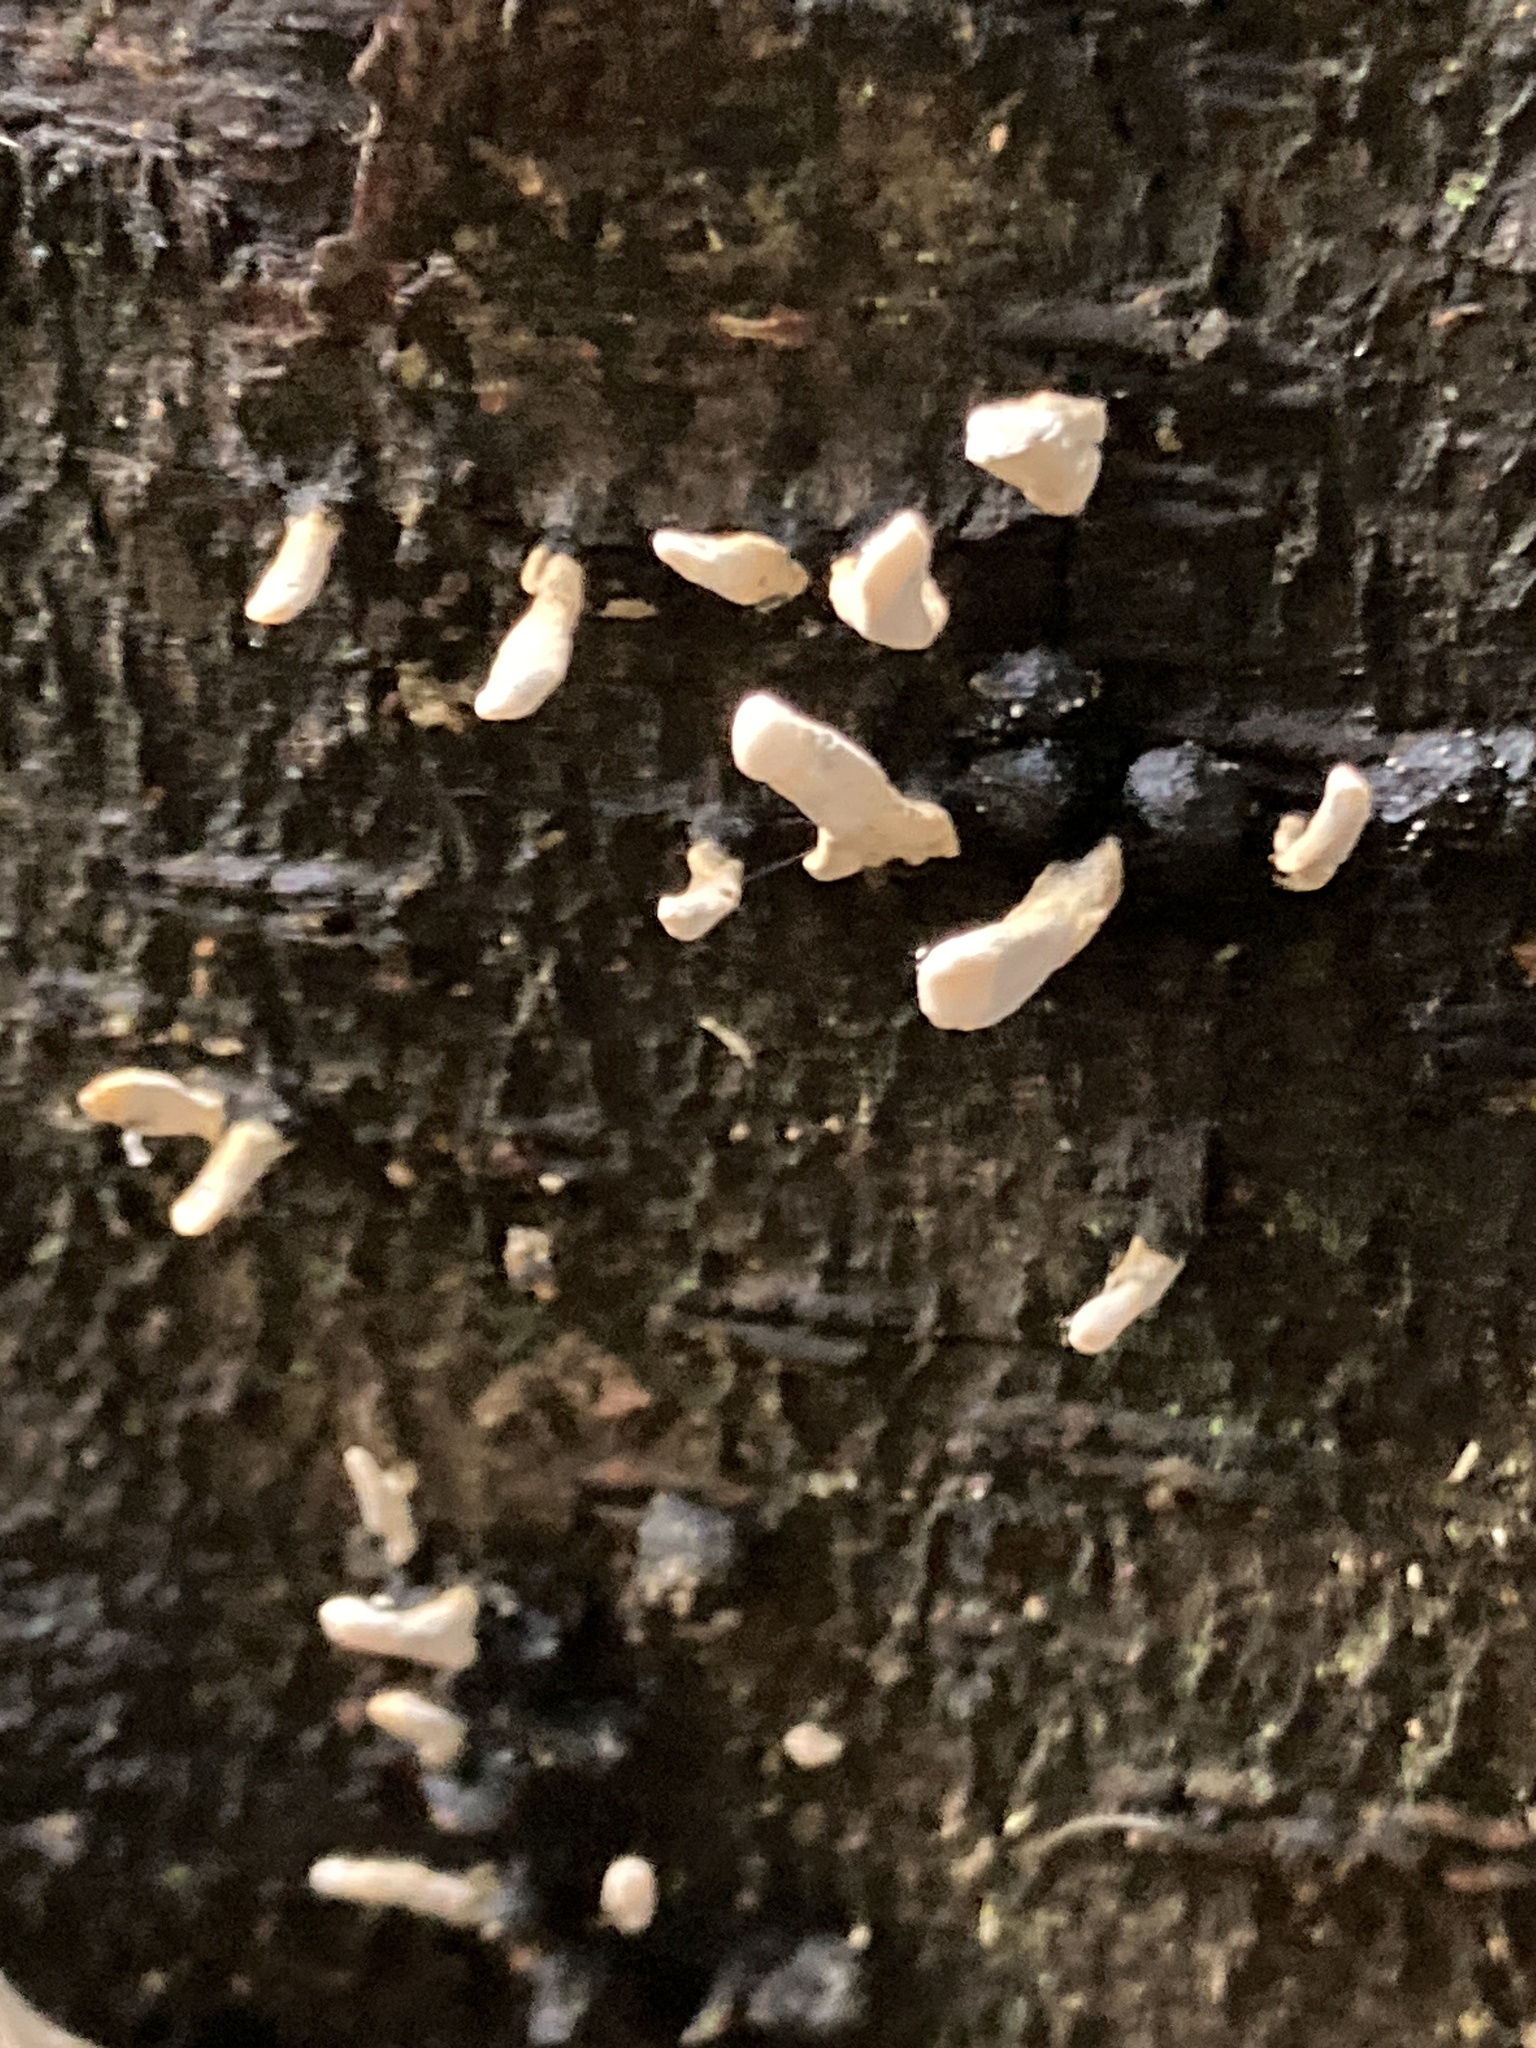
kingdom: Fungi
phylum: Ascomycota
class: Sordariomycetes
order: Xylariales
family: Xylariaceae
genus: Xylaria
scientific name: Xylaria hypoxylon
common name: Candle-snuff fungus
